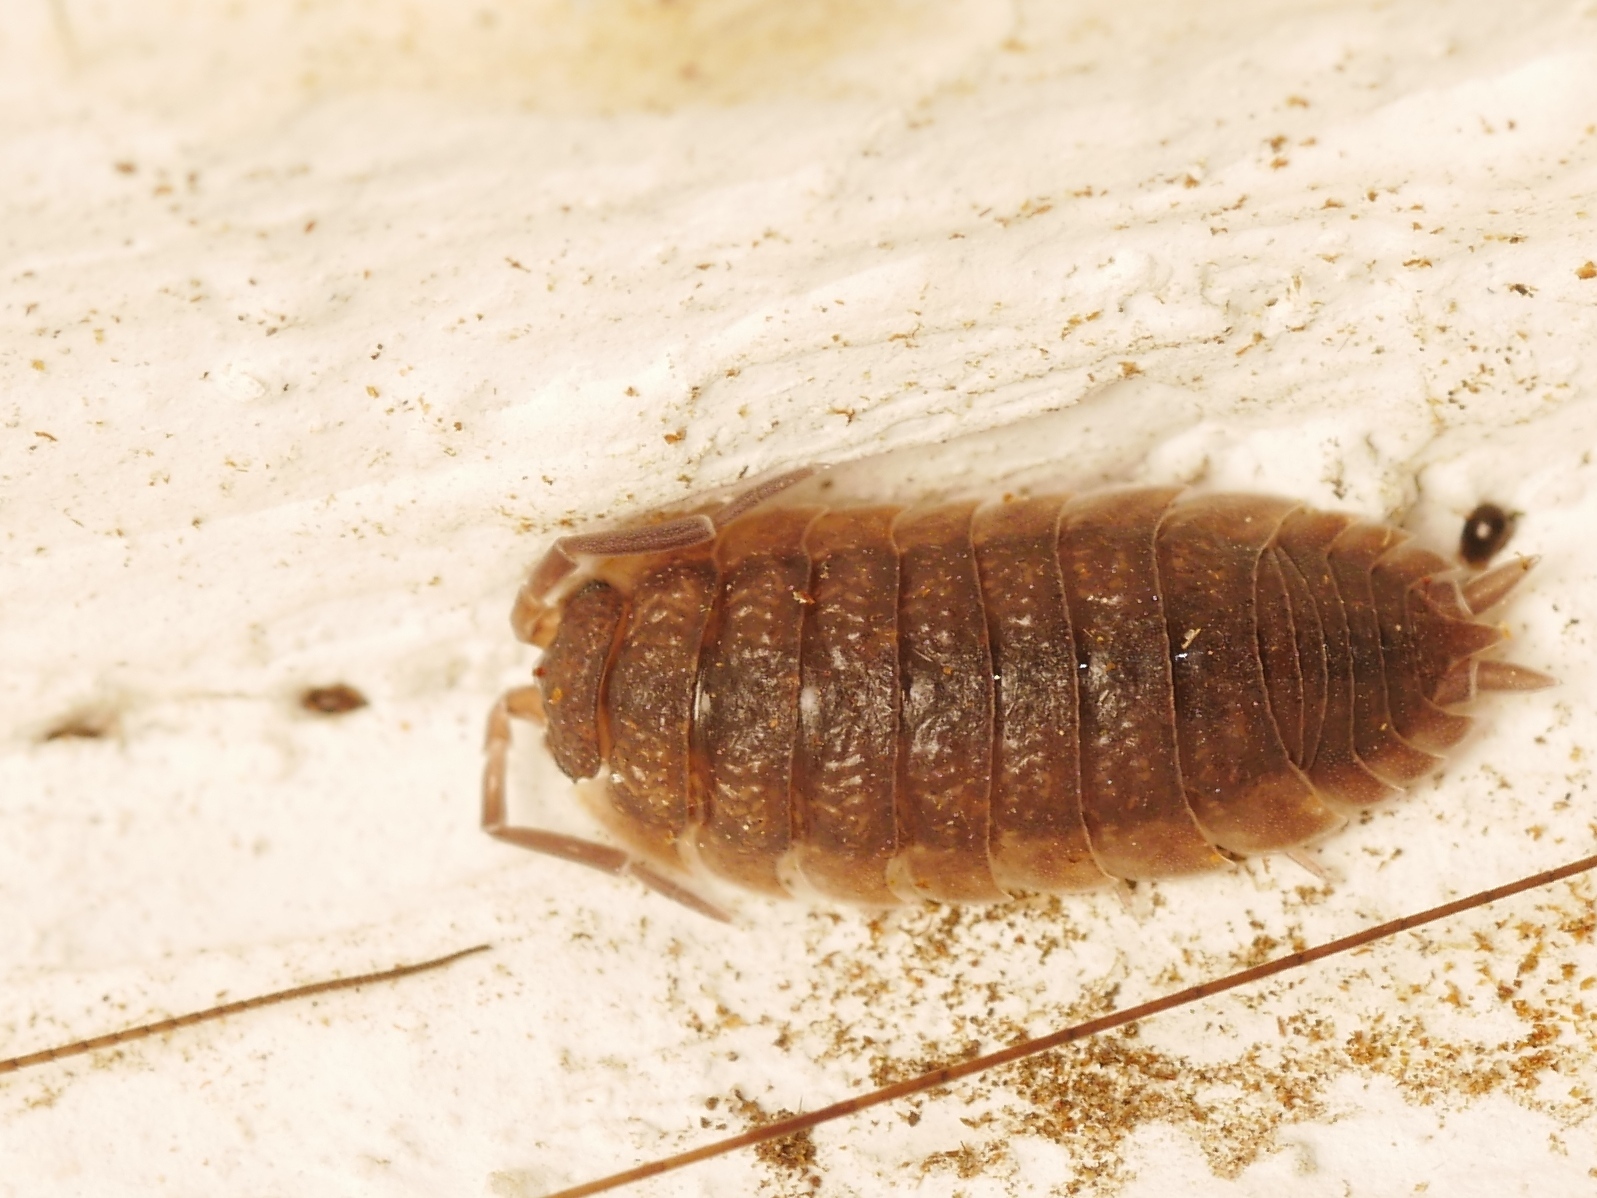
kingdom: Animalia
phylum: Arthropoda
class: Malacostraca
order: Isopoda
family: Porcellionidae
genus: Porcellio
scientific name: Porcellio scaber
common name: Common rough woodlouse
